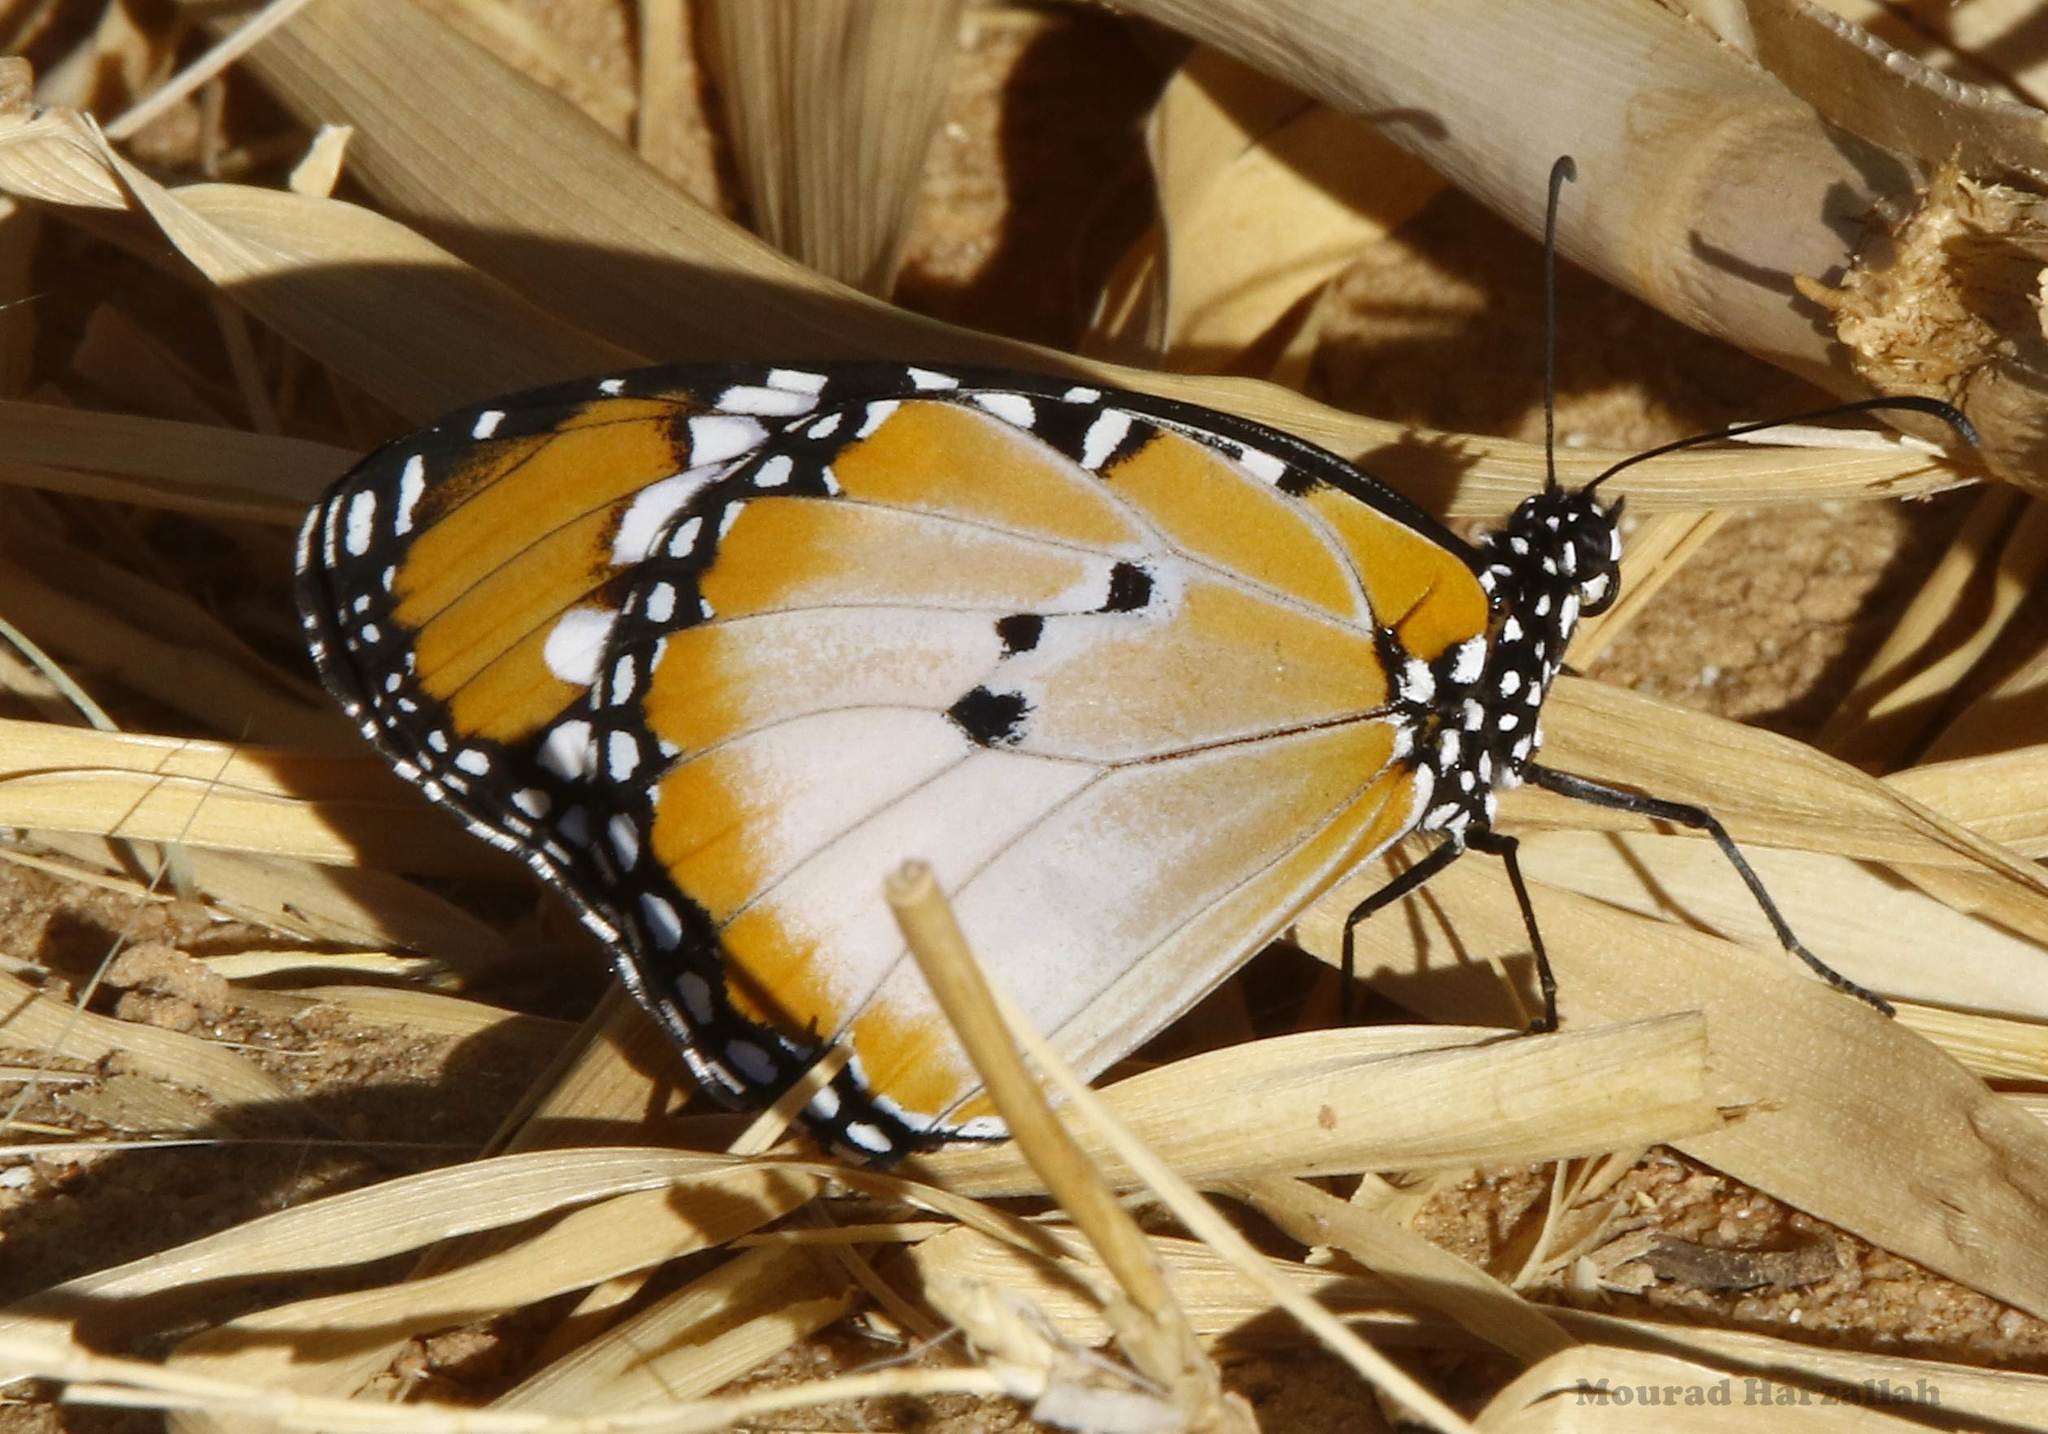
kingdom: Animalia
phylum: Arthropoda
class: Insecta
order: Lepidoptera
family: Nymphalidae
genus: Danaus
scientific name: Danaus chrysippus
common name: Plain tiger
